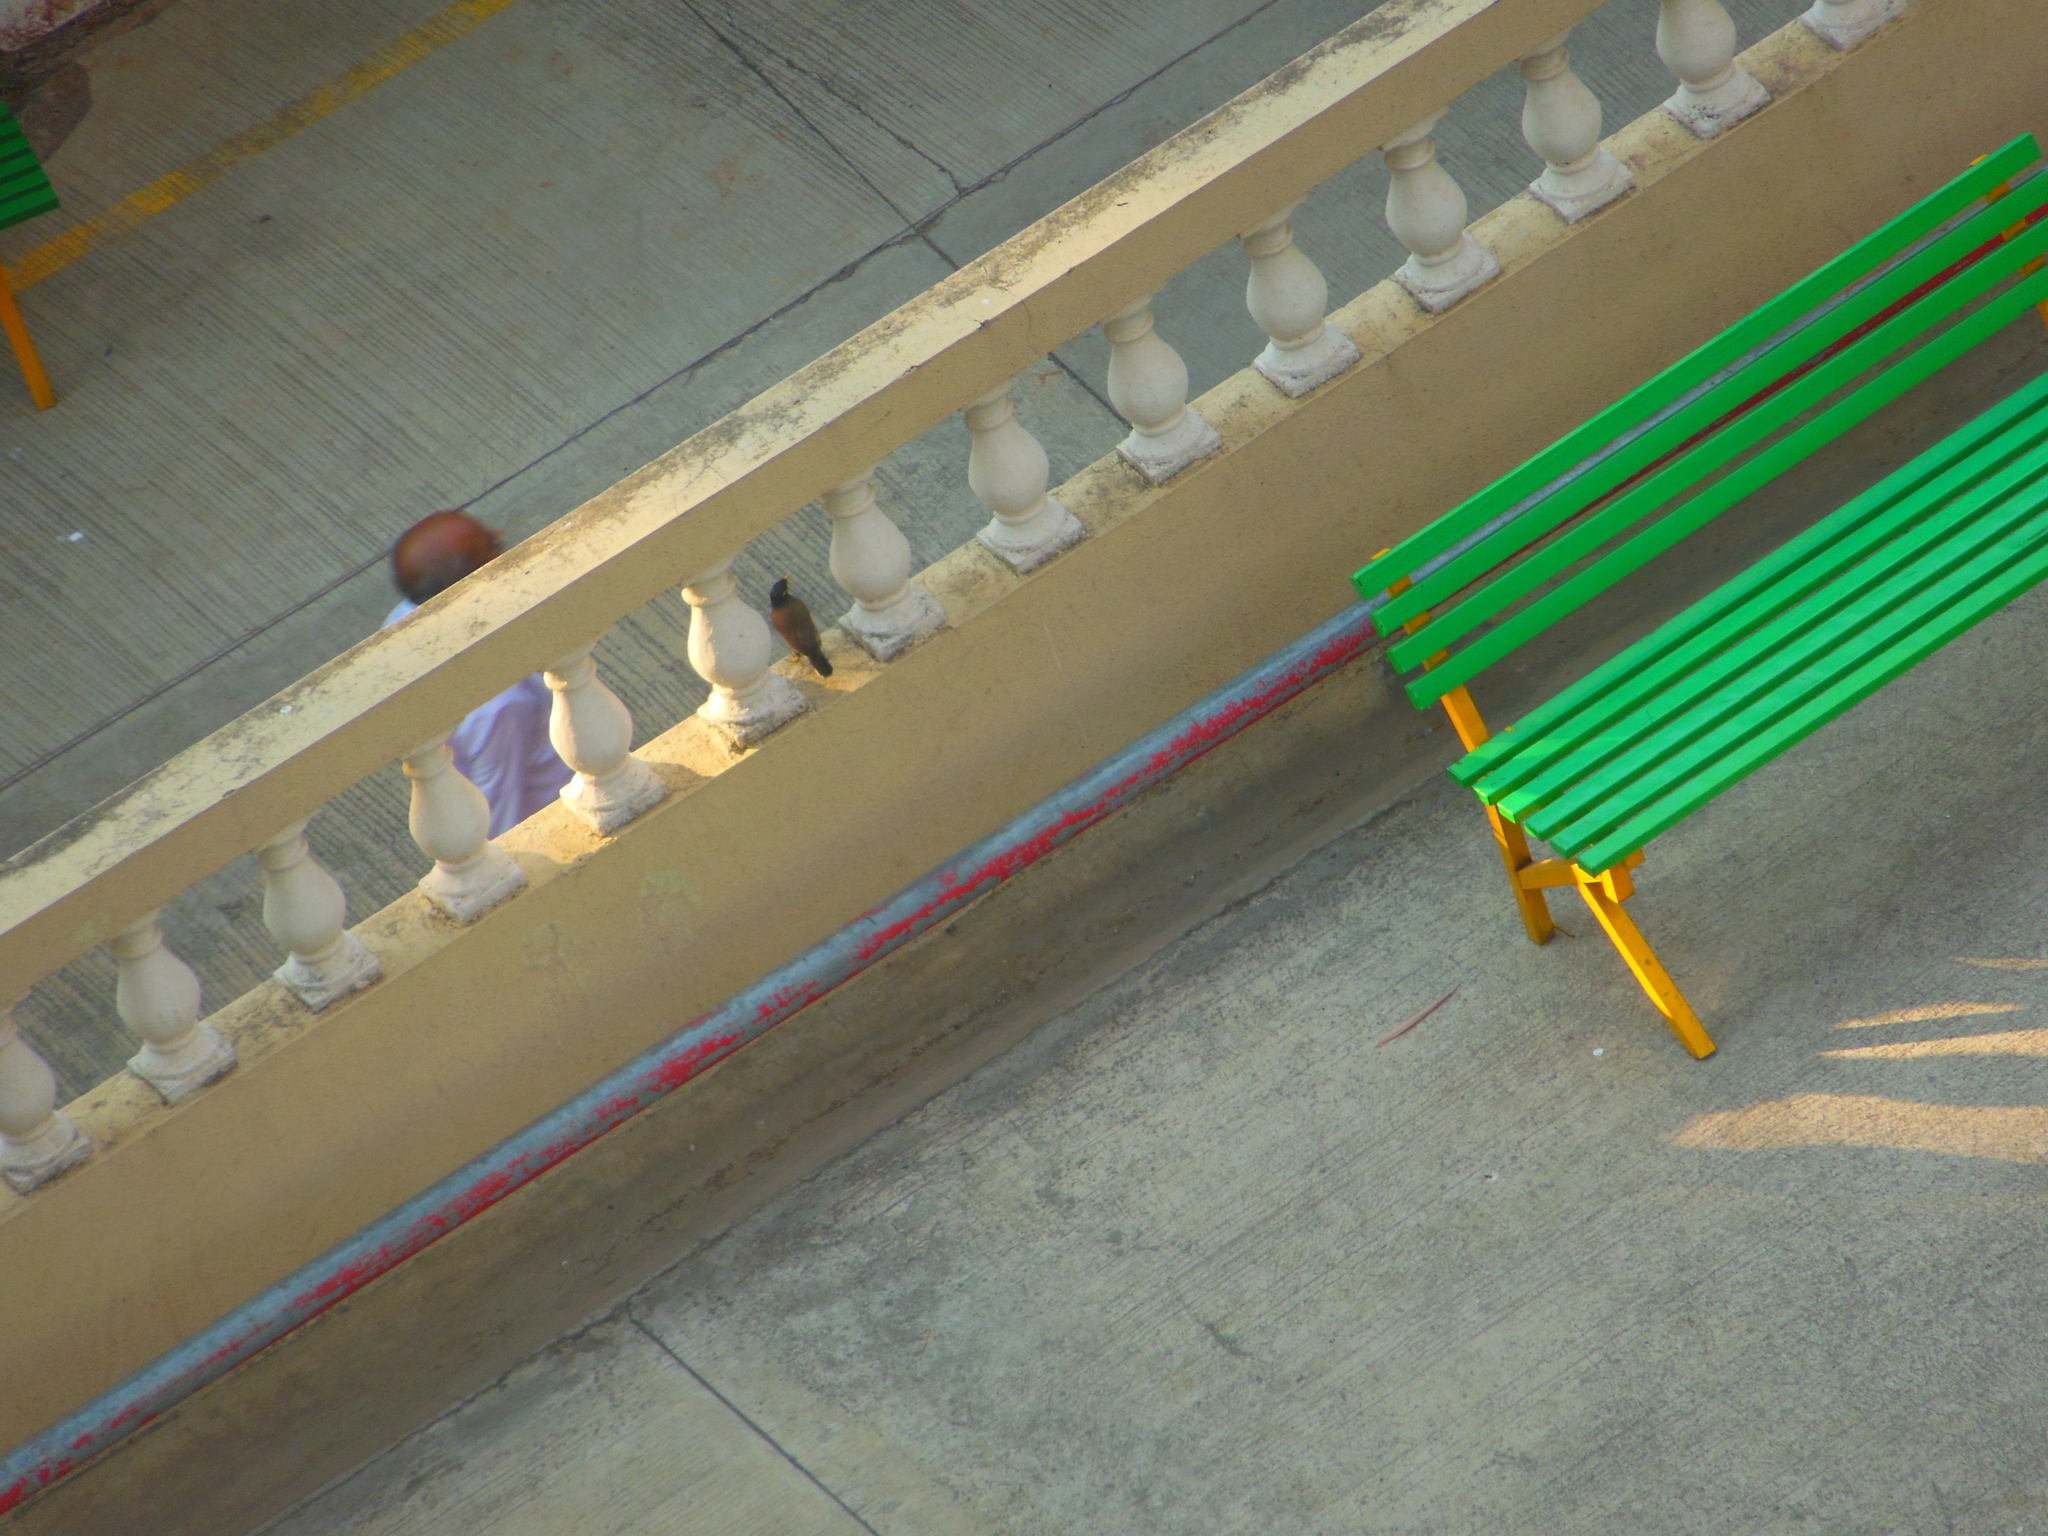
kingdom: Animalia
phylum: Chordata
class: Aves
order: Passeriformes
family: Sturnidae
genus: Acridotheres
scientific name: Acridotheres tristis
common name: Common myna
